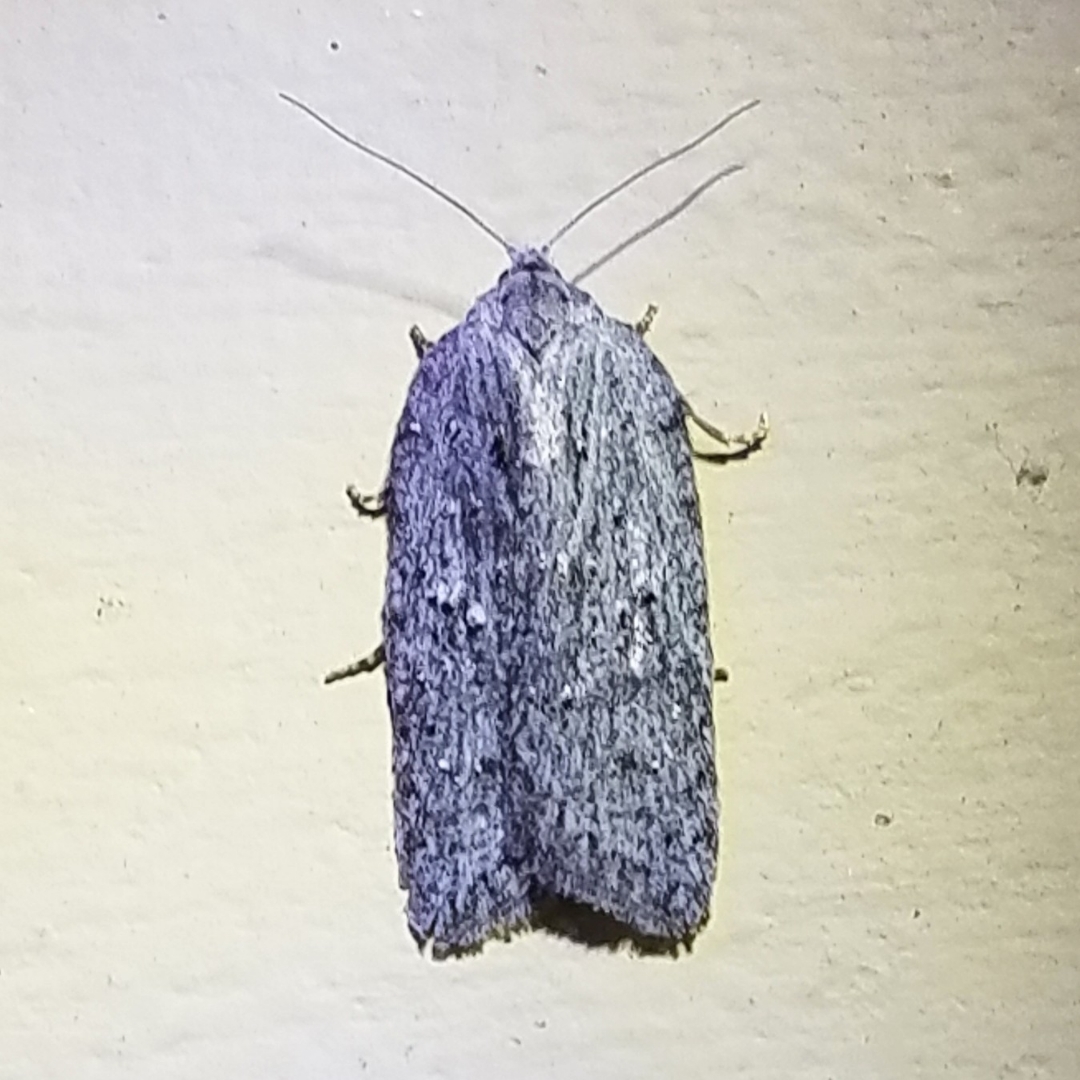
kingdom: Animalia
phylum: Arthropoda
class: Insecta
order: Lepidoptera
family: Tortricidae
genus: Acleris
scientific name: Acleris maximana
